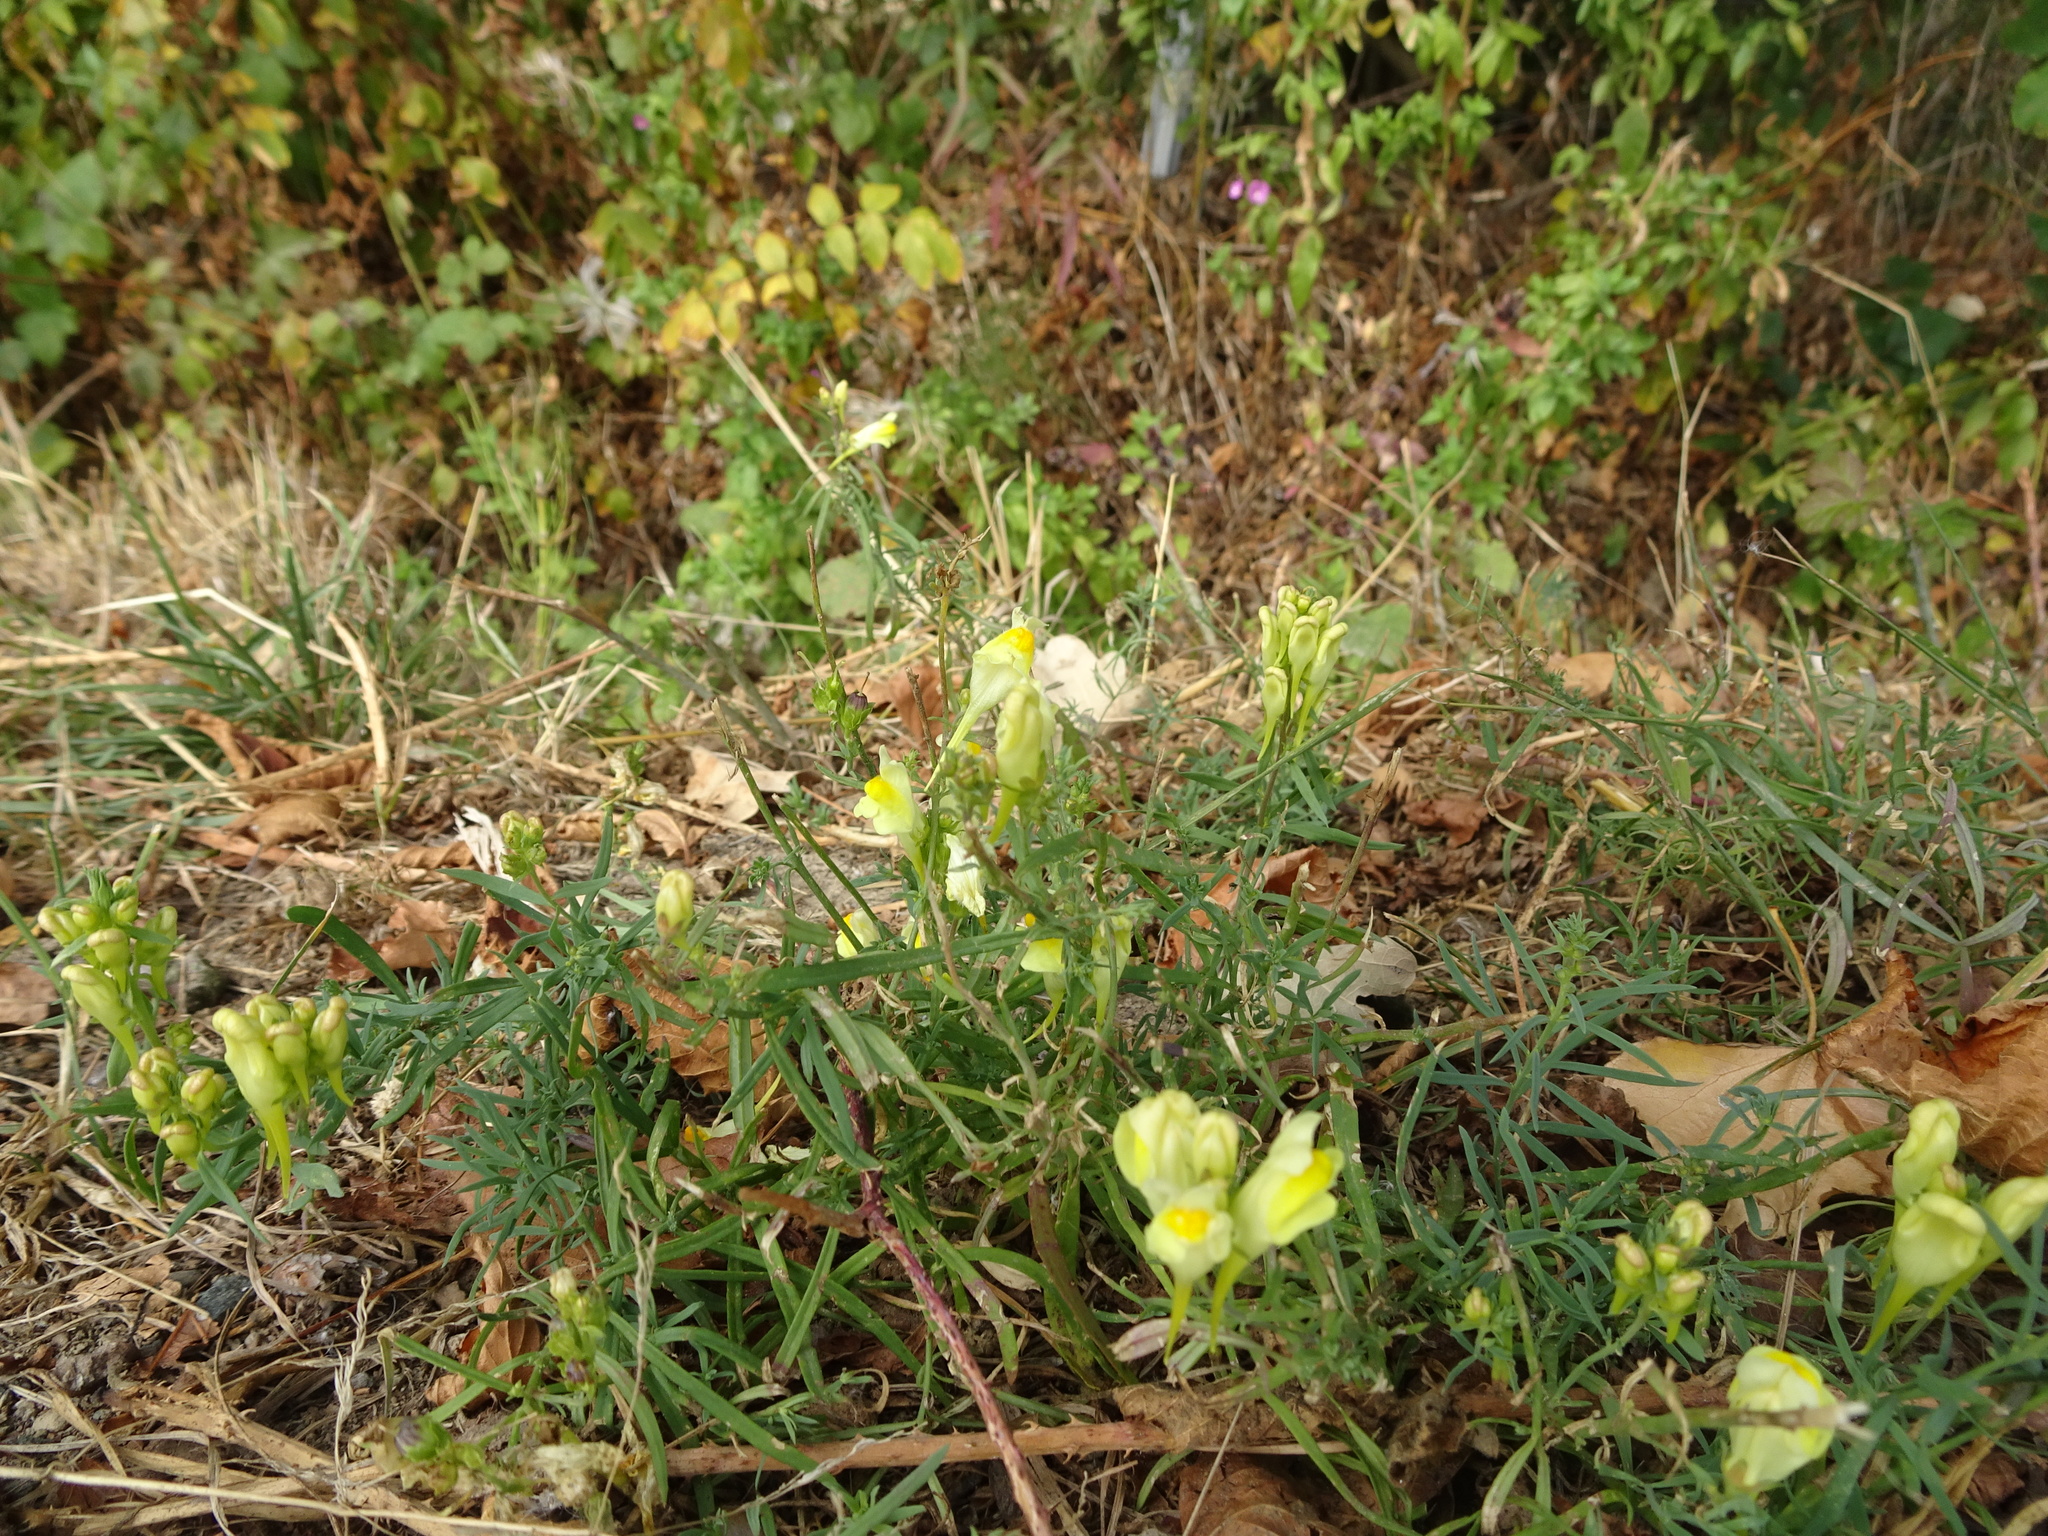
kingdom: Plantae
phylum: Tracheophyta
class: Magnoliopsida
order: Lamiales
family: Plantaginaceae
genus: Linaria
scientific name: Linaria vulgaris
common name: Butter and eggs
